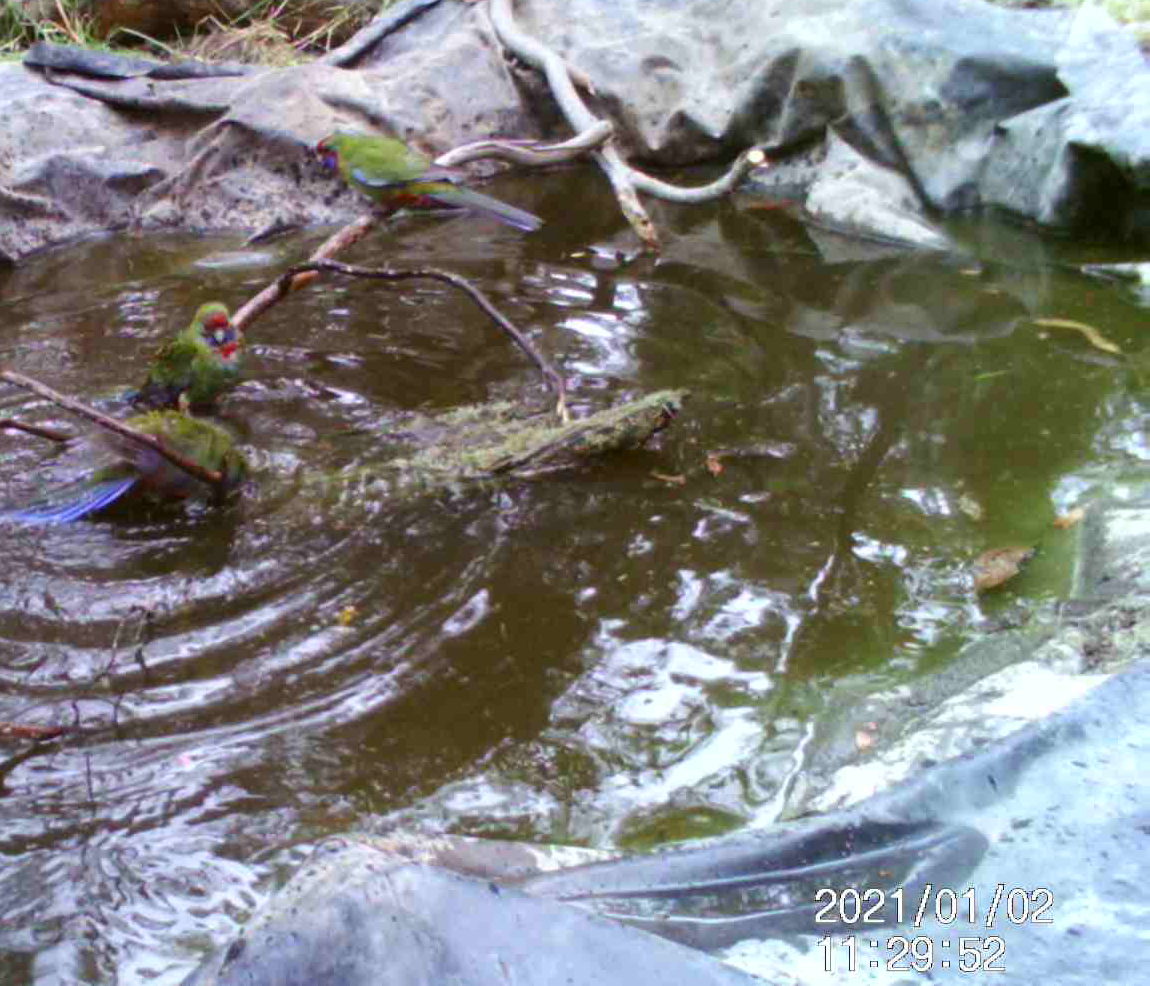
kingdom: Animalia
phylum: Chordata
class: Aves
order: Psittaciformes
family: Psittacidae
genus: Platycercus
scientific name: Platycercus elegans
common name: Crimson rosella
